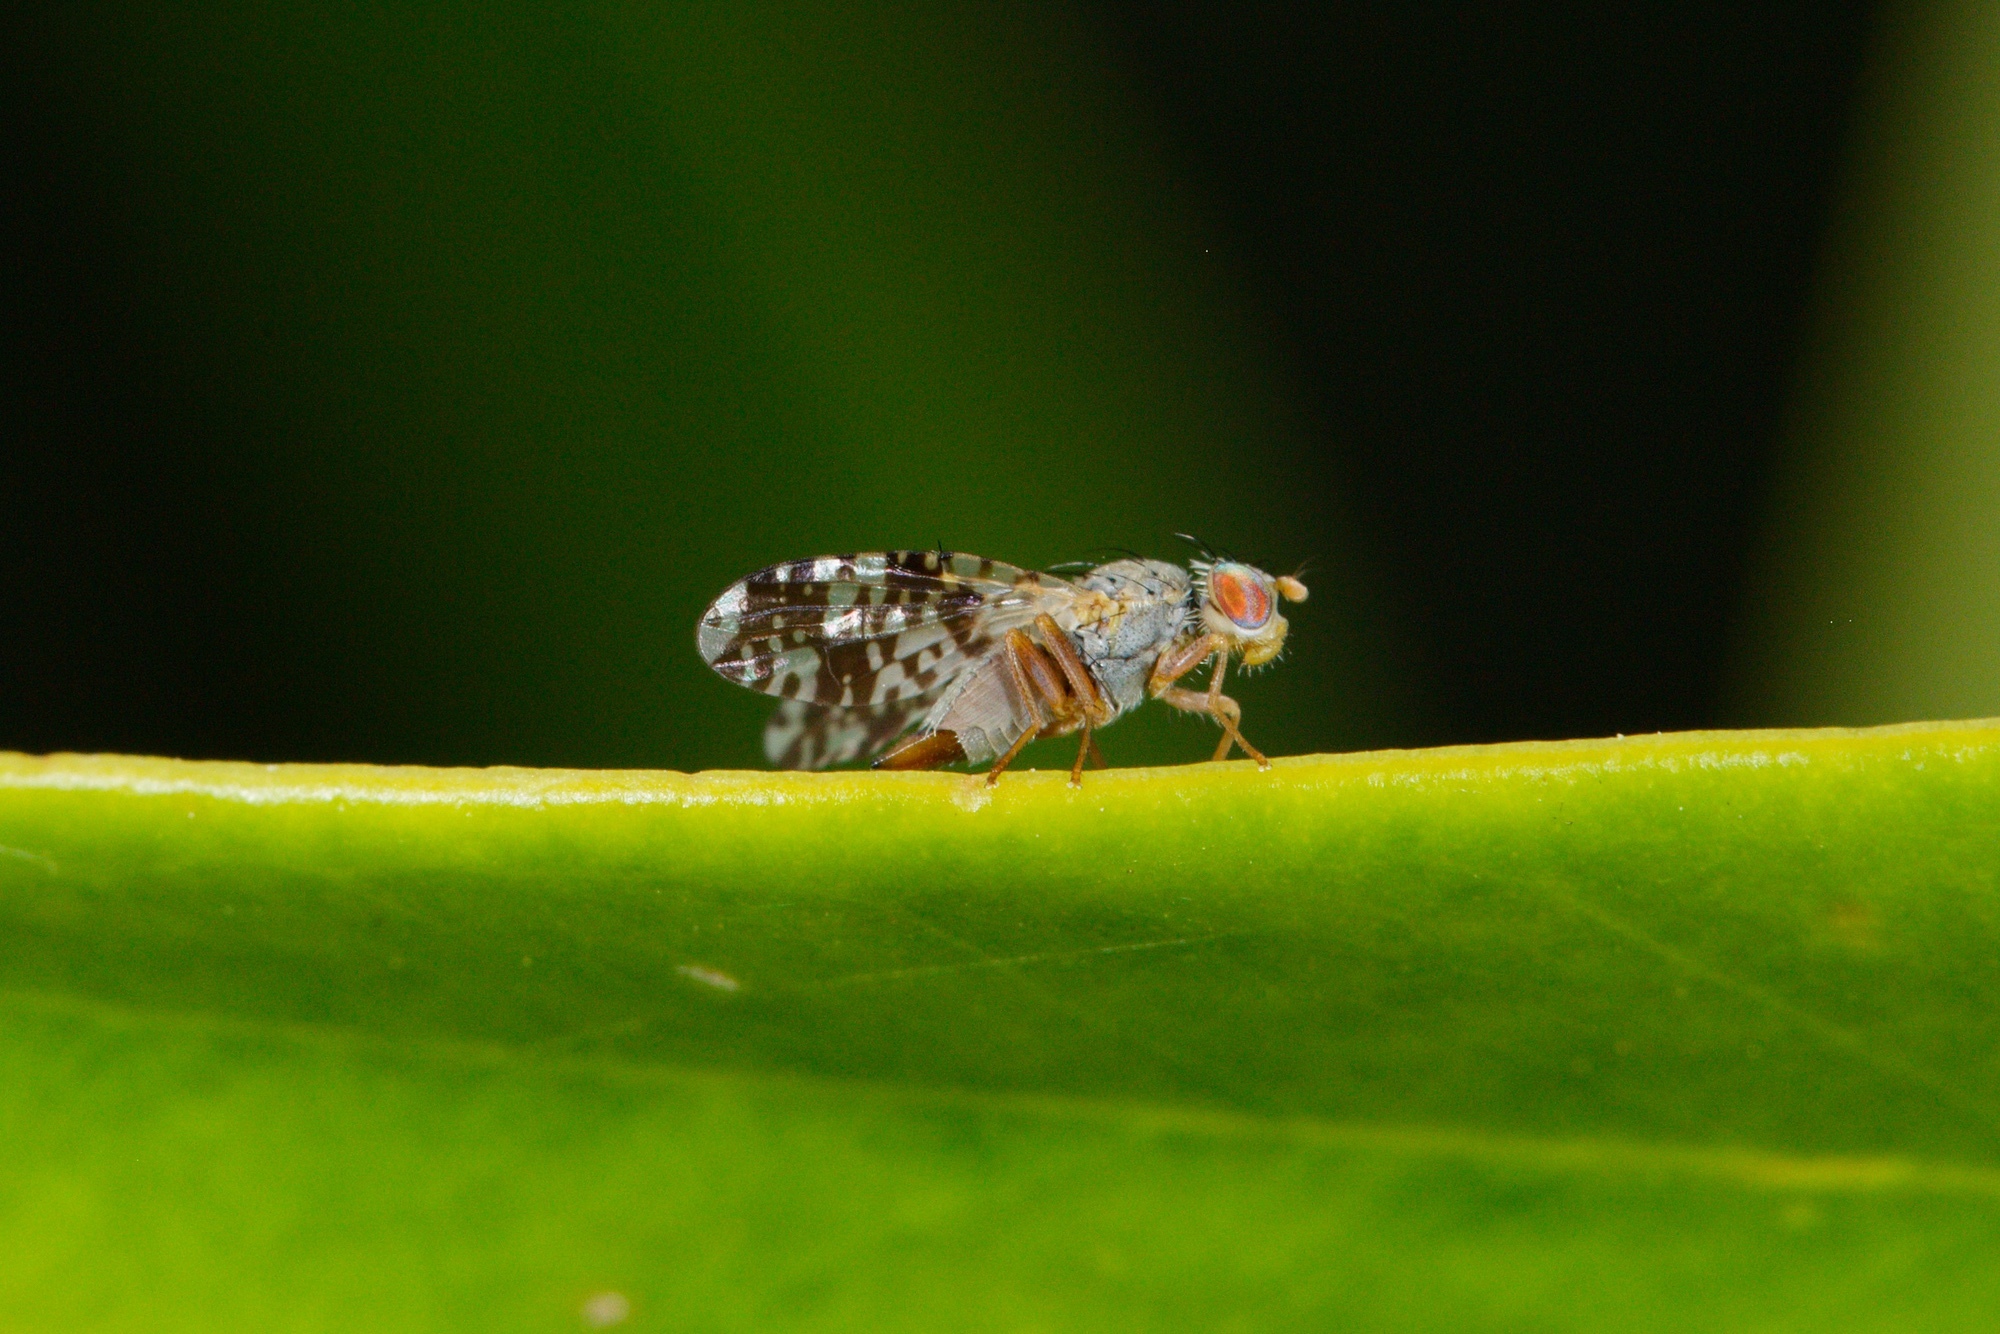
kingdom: Animalia
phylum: Arthropoda
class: Insecta
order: Diptera
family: Tephritidae
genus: Austrotephritis
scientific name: Austrotephritis
